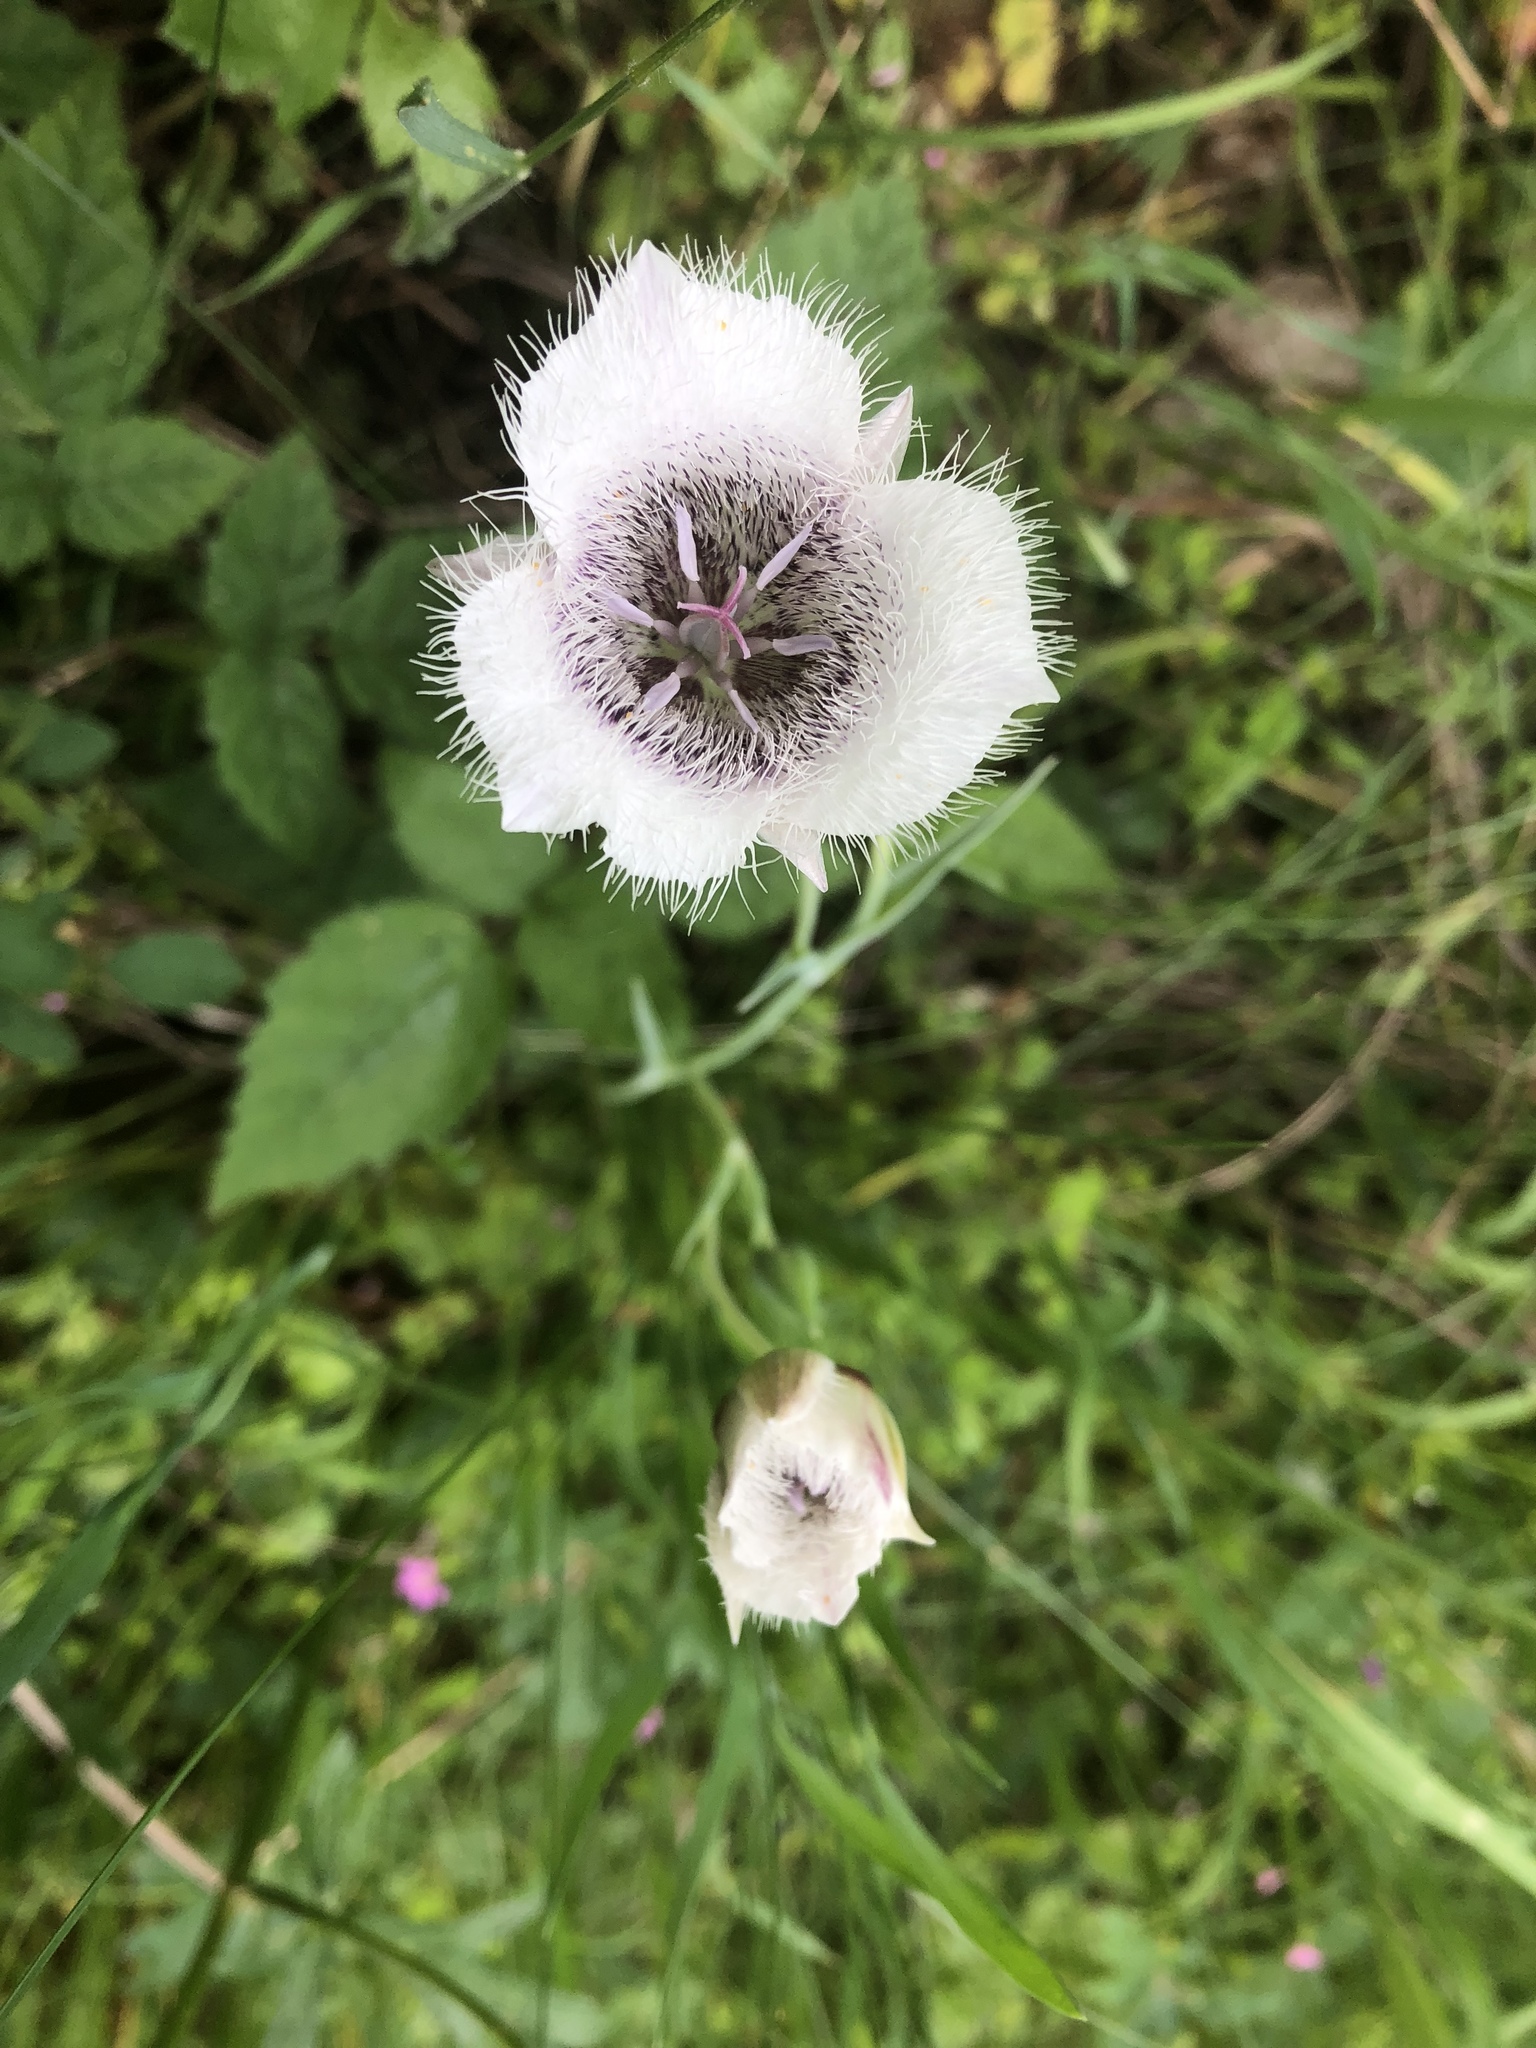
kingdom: Plantae
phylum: Tracheophyta
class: Liliopsida
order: Liliales
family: Liliaceae
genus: Calochortus
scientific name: Calochortus tolmiei
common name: Pussy-ears
